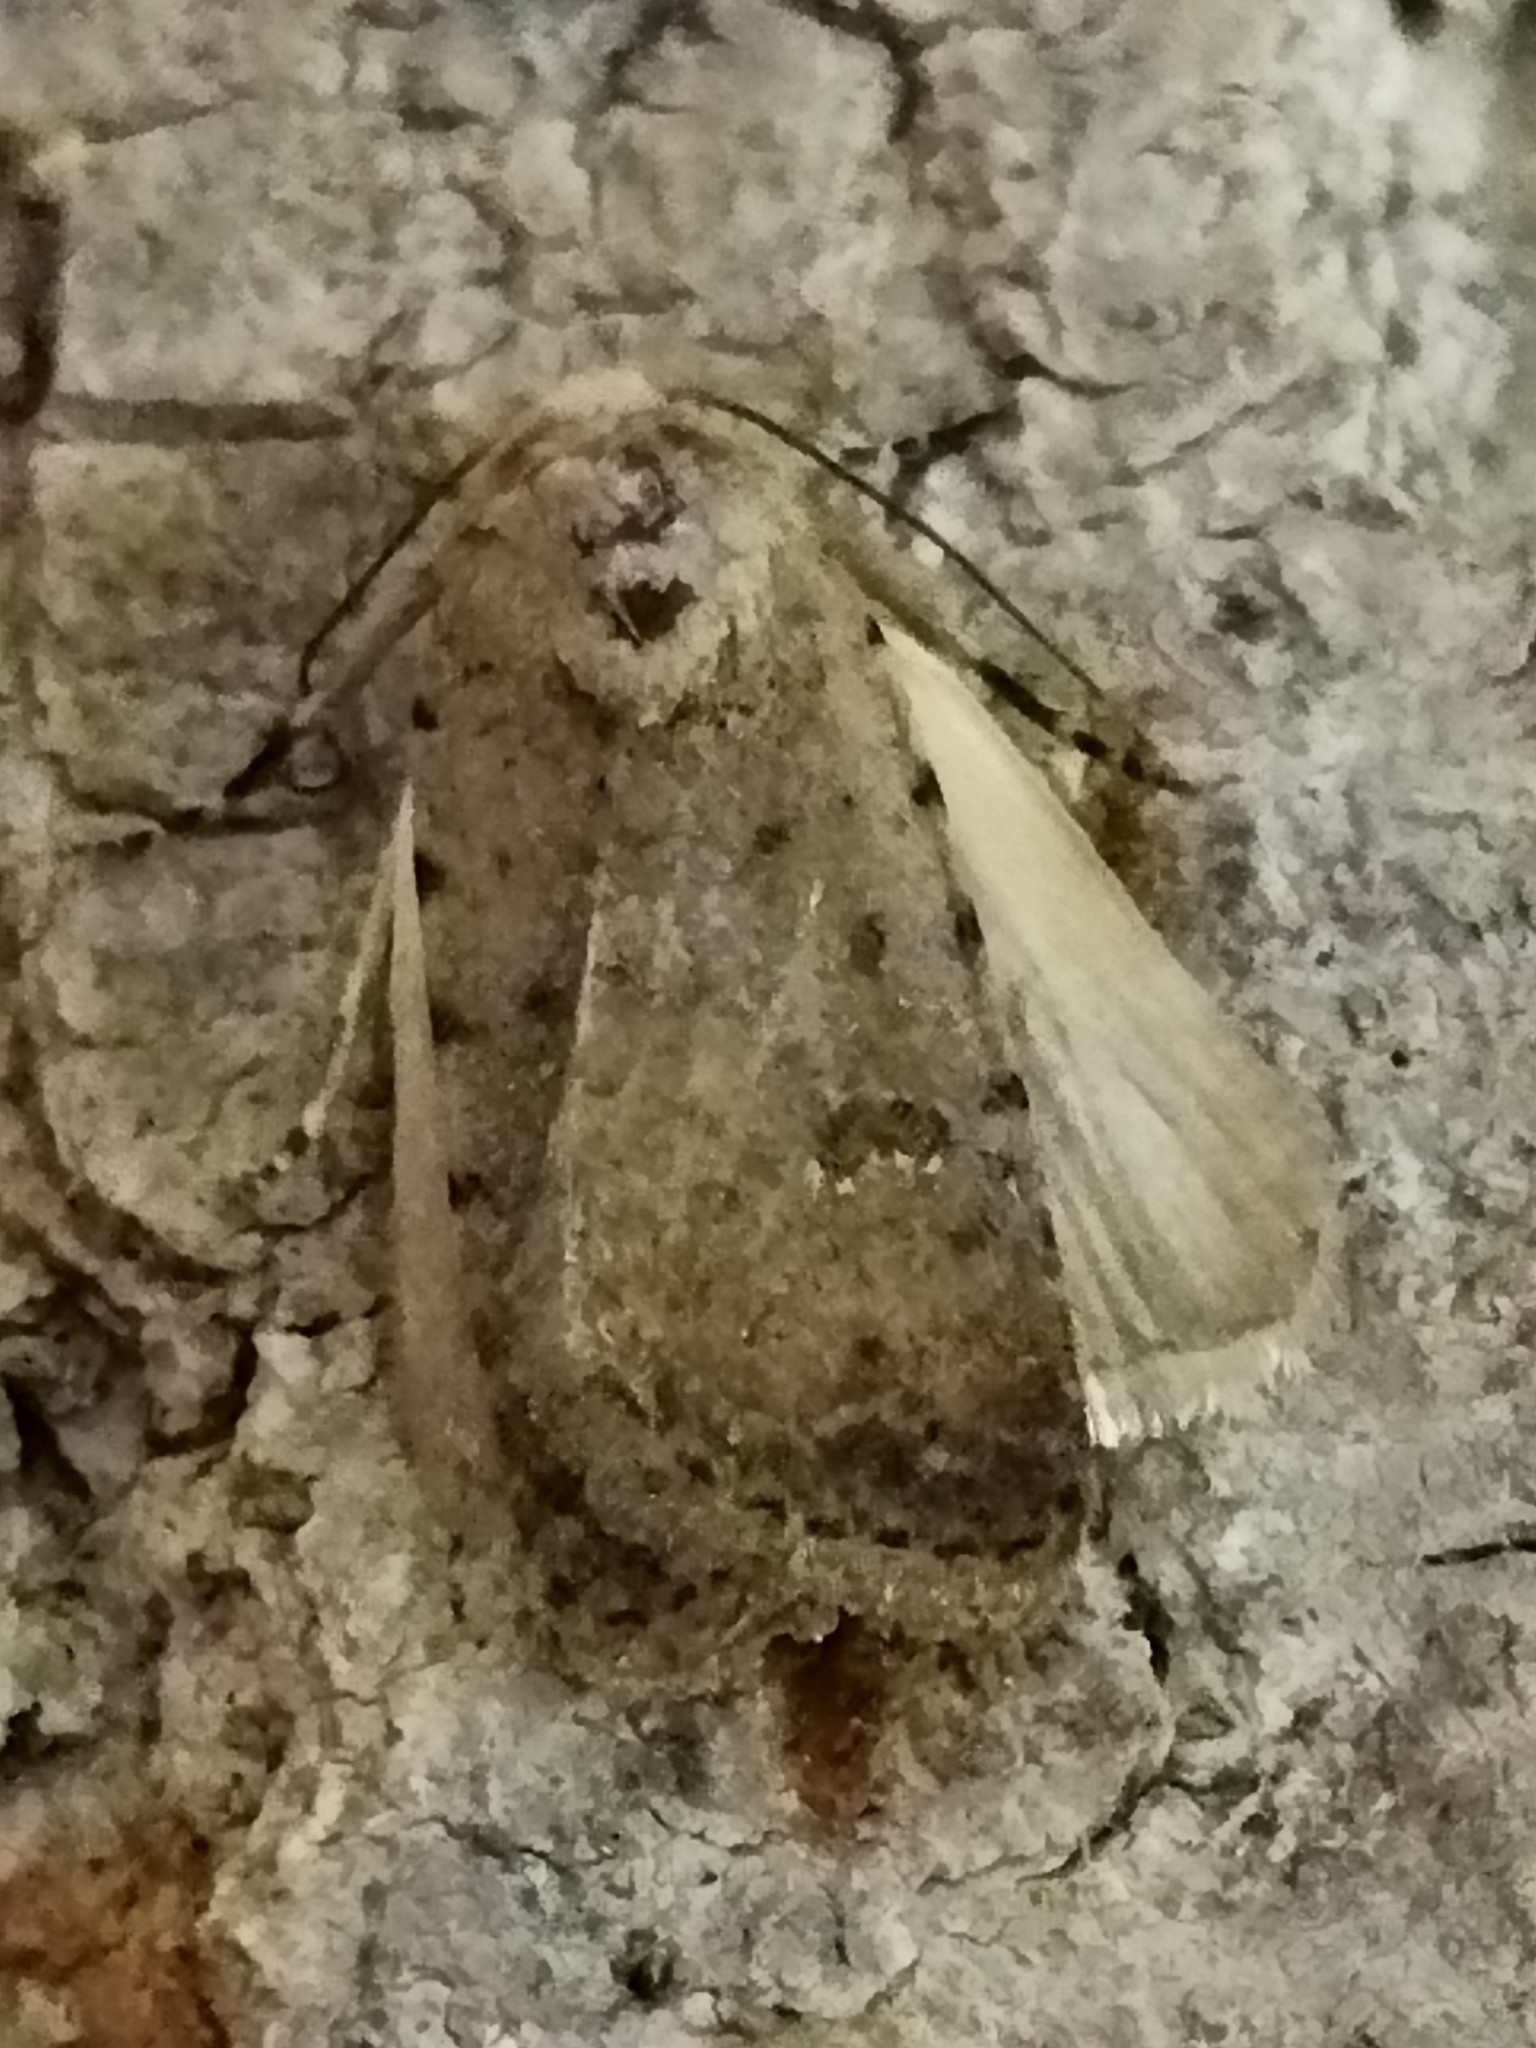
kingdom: Animalia
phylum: Arthropoda
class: Insecta
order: Lepidoptera
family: Noctuidae
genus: Caradrina
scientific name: Caradrina clavipalpis
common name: Pale mottled willow
